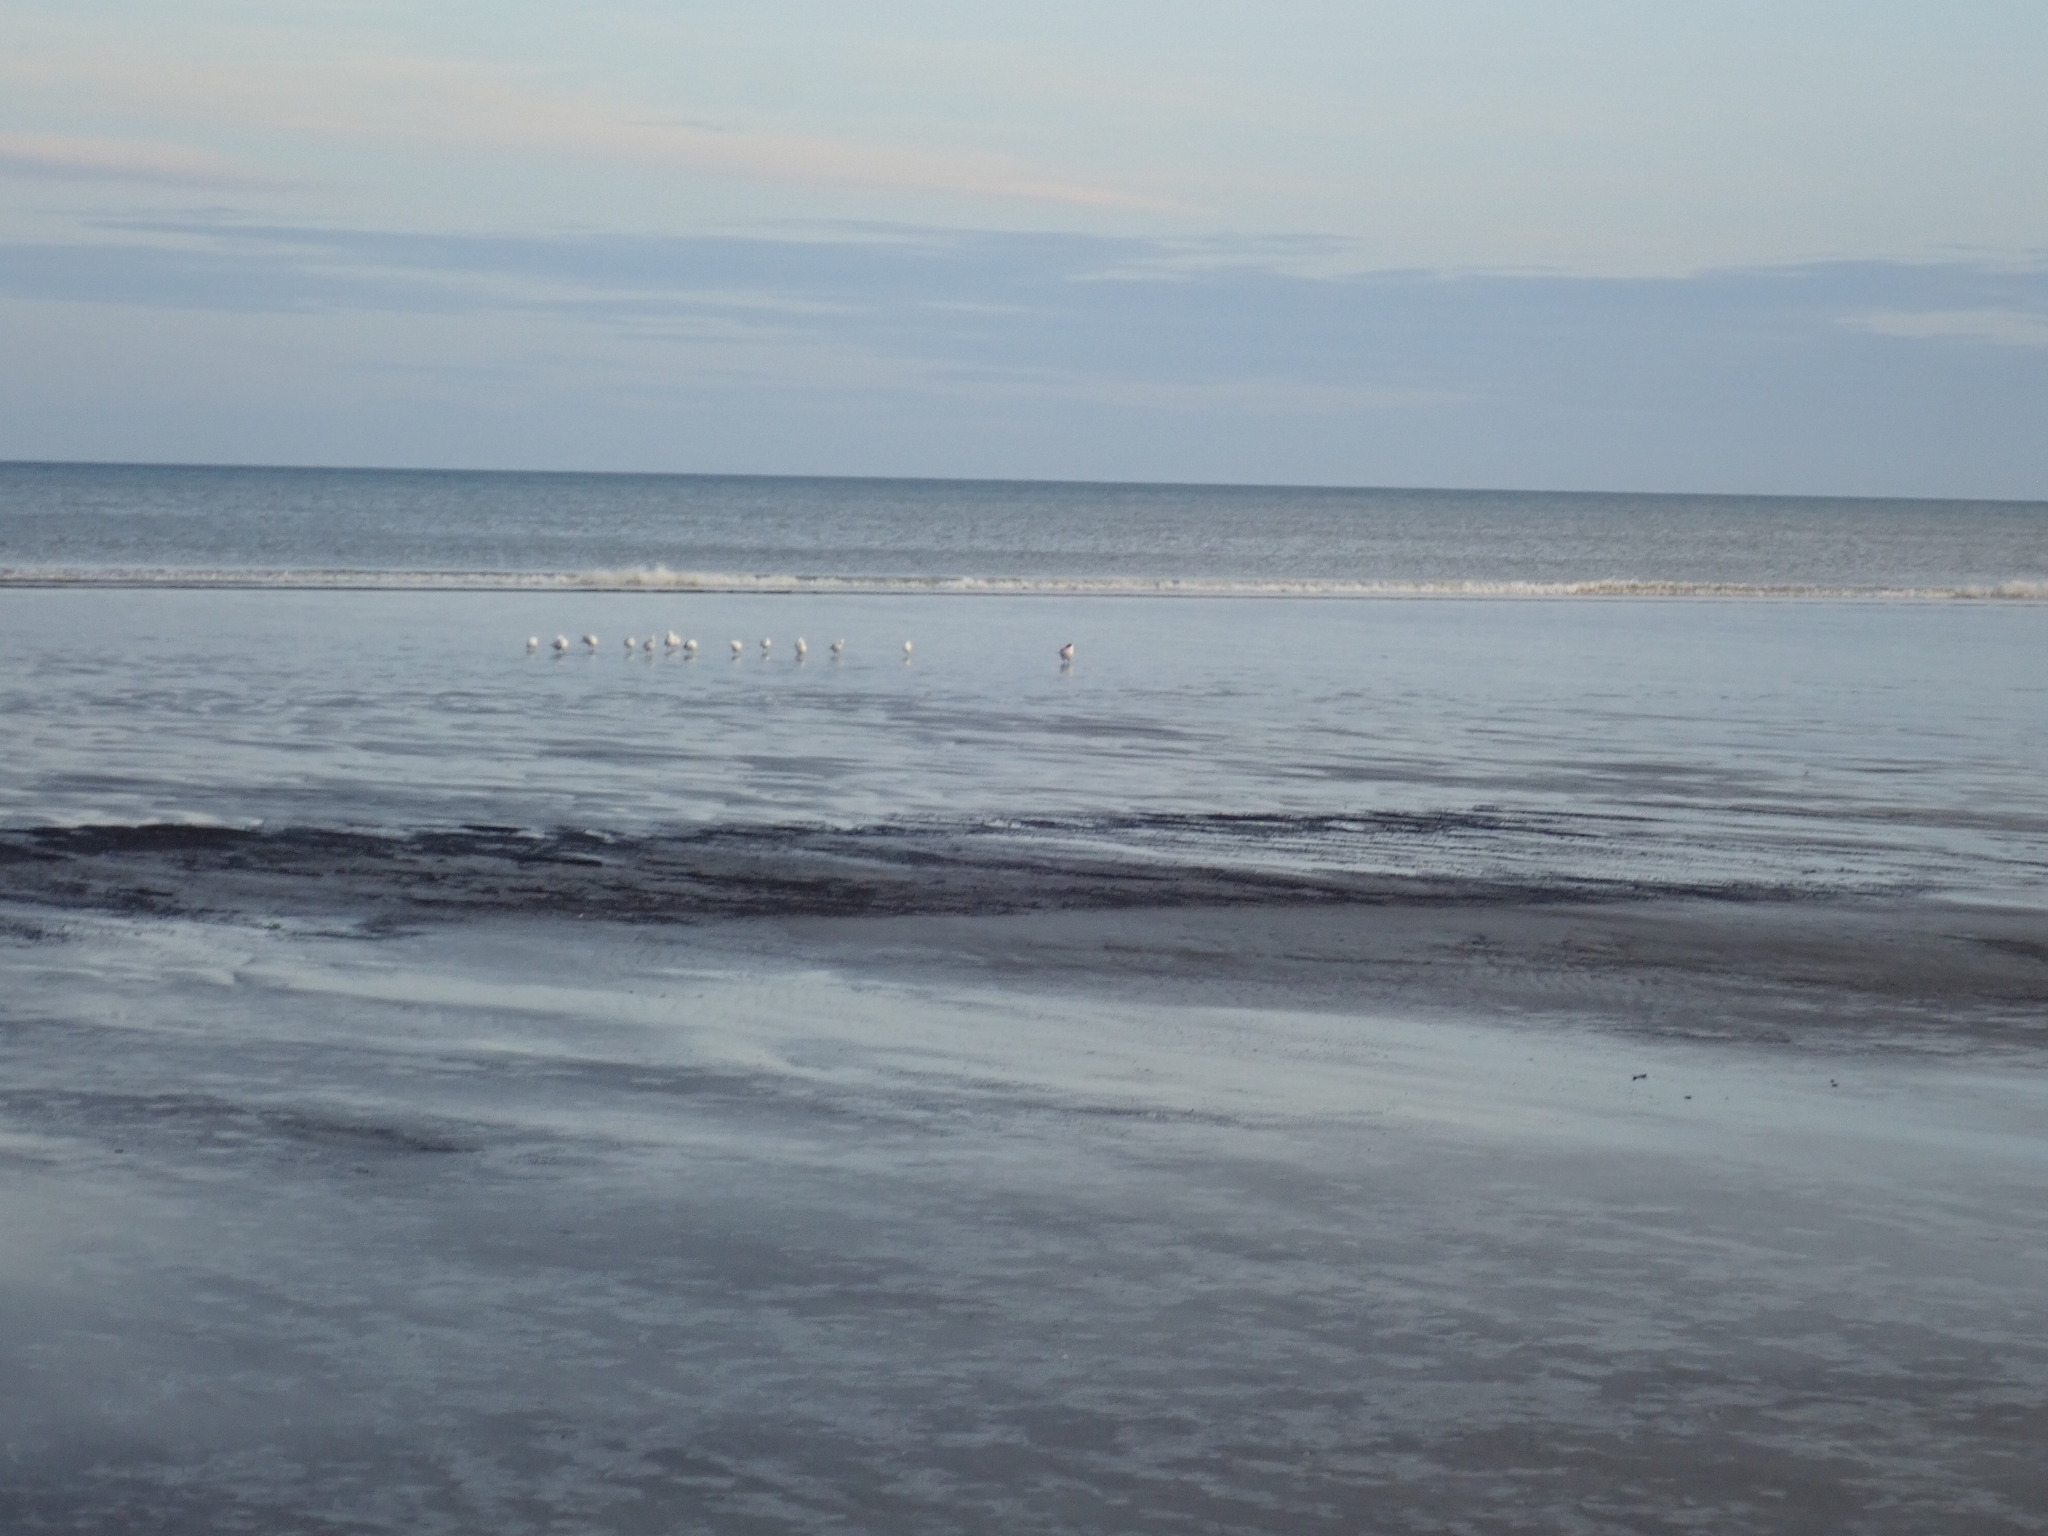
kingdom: Animalia
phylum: Chordata
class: Aves
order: Charadriiformes
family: Laridae
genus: Hydroprogne
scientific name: Hydroprogne caspia
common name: Caspian tern
